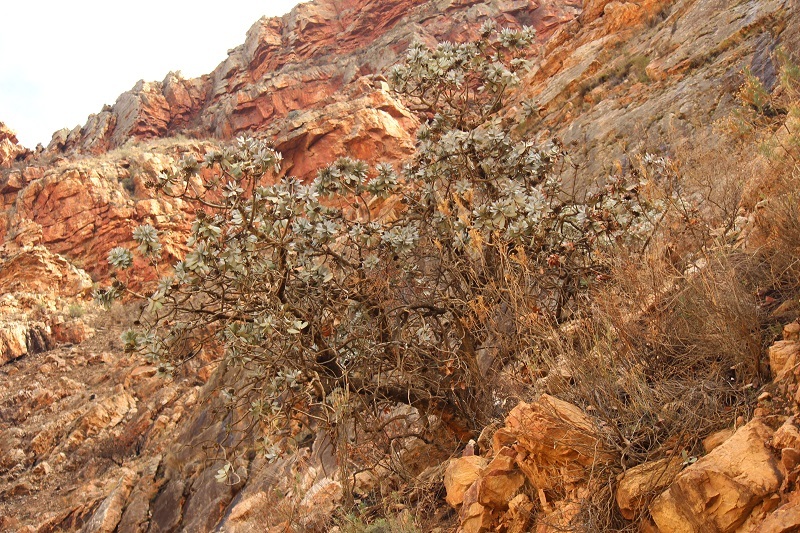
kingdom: Plantae
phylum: Tracheophyta
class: Magnoliopsida
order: Proteales
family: Proteaceae
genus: Protea
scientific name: Protea nitida
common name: Tree protea
